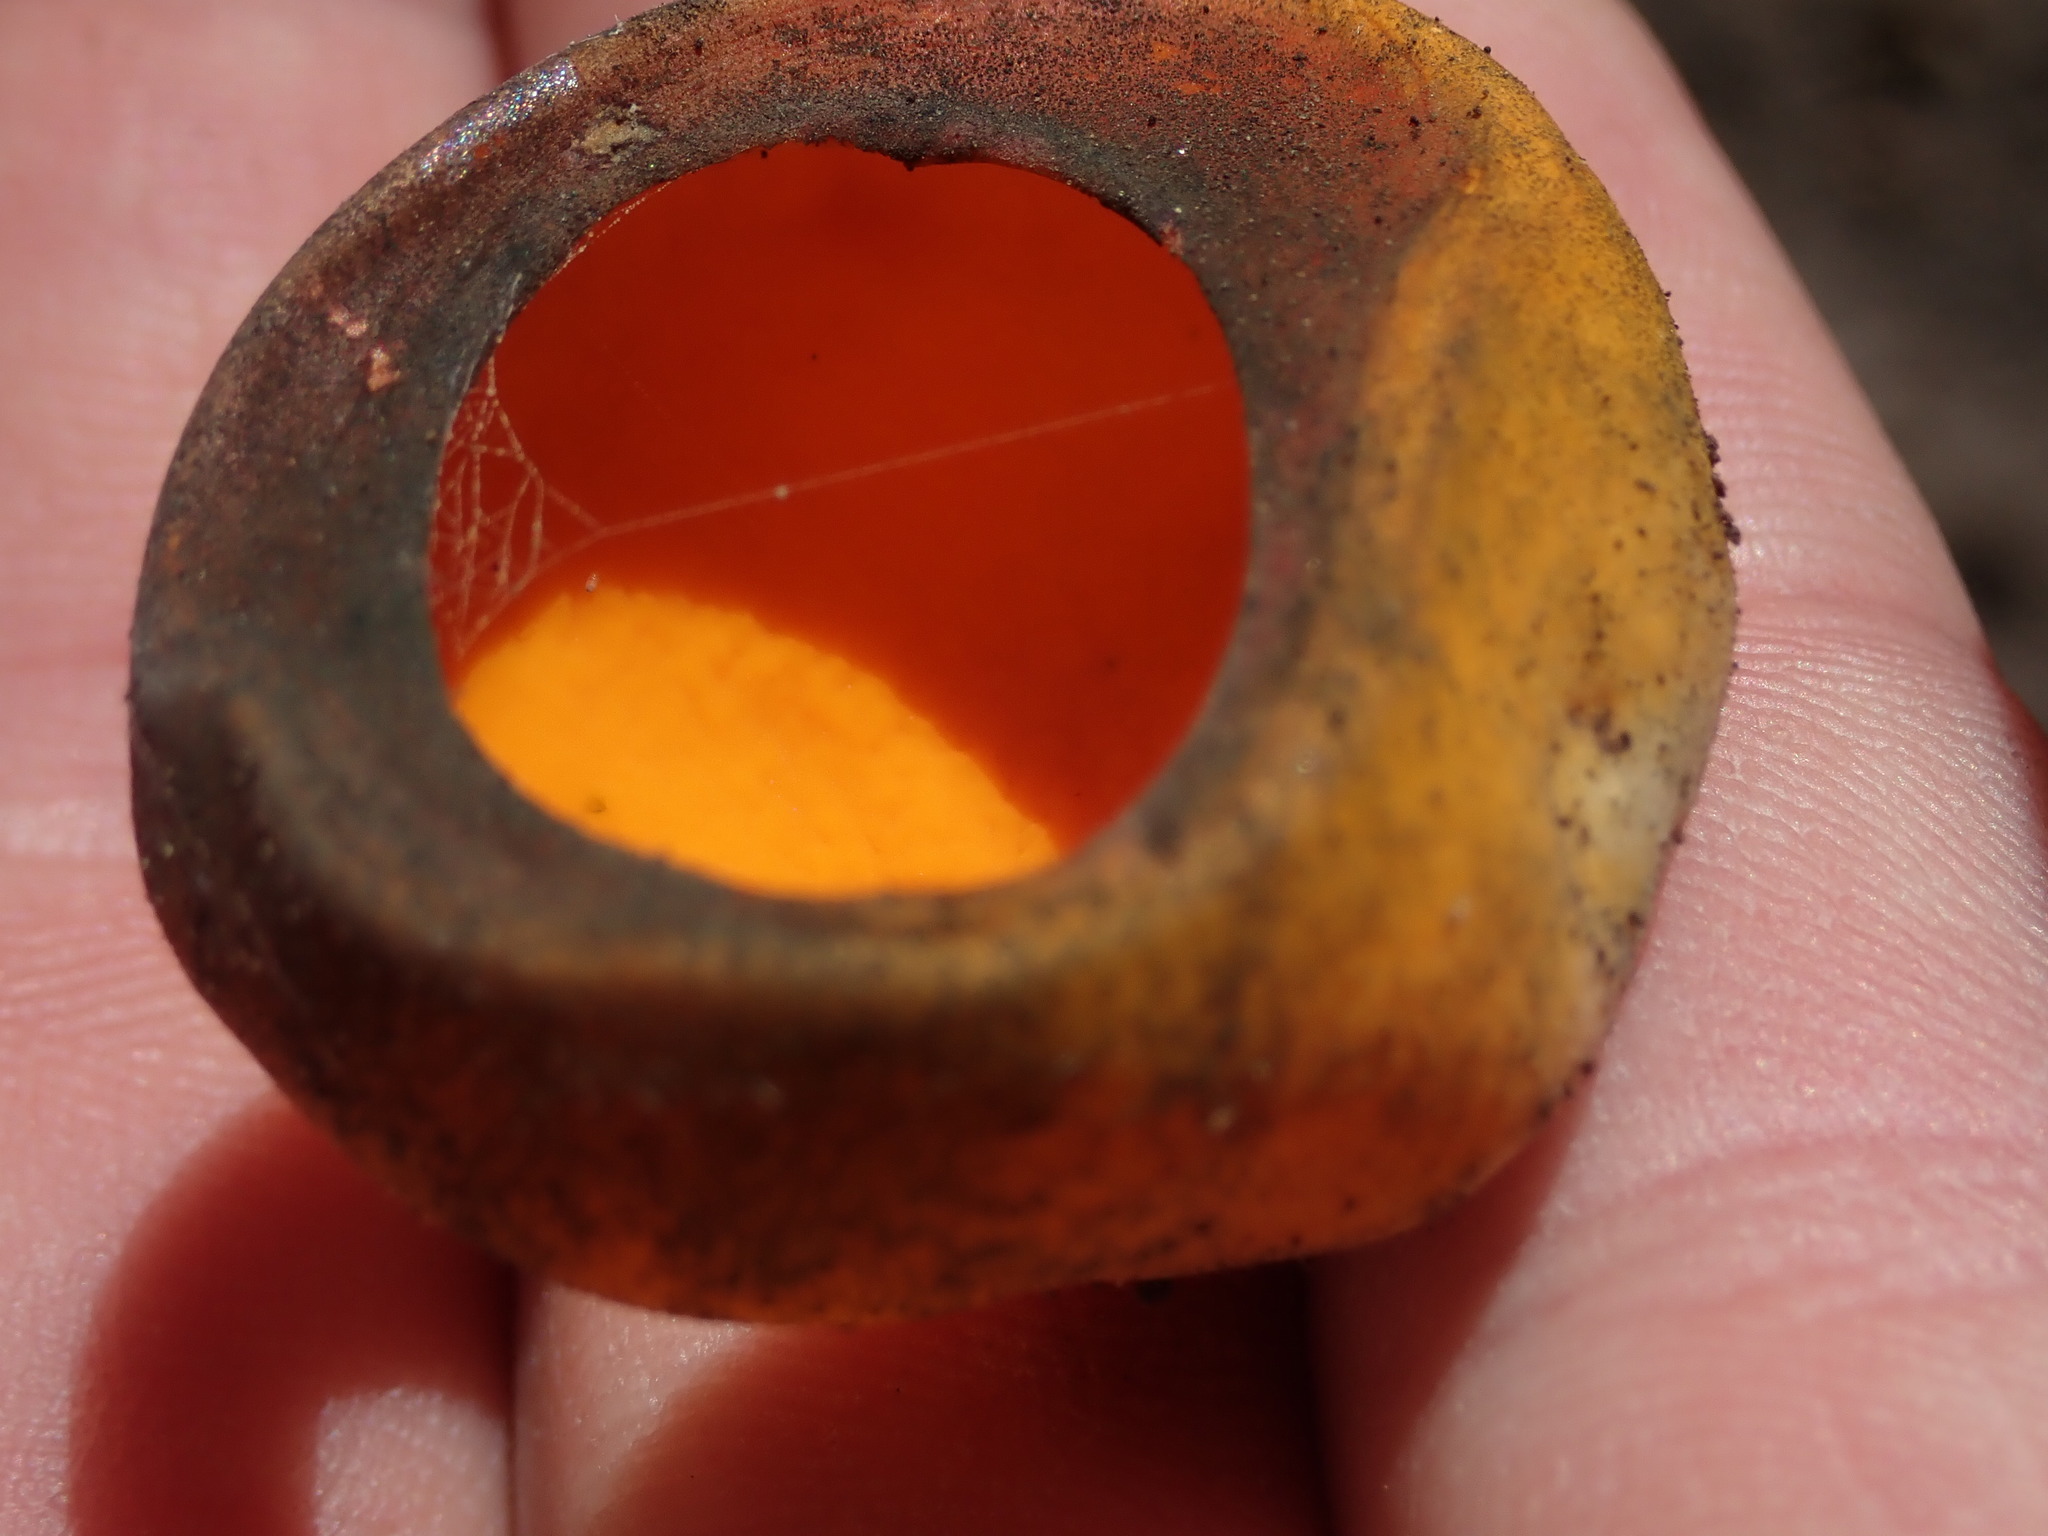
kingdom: Fungi
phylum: Ascomycota
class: Pezizomycetes
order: Pezizales
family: Caloscyphaceae
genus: Caloscypha
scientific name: Caloscypha fulgens
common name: Golden cup
